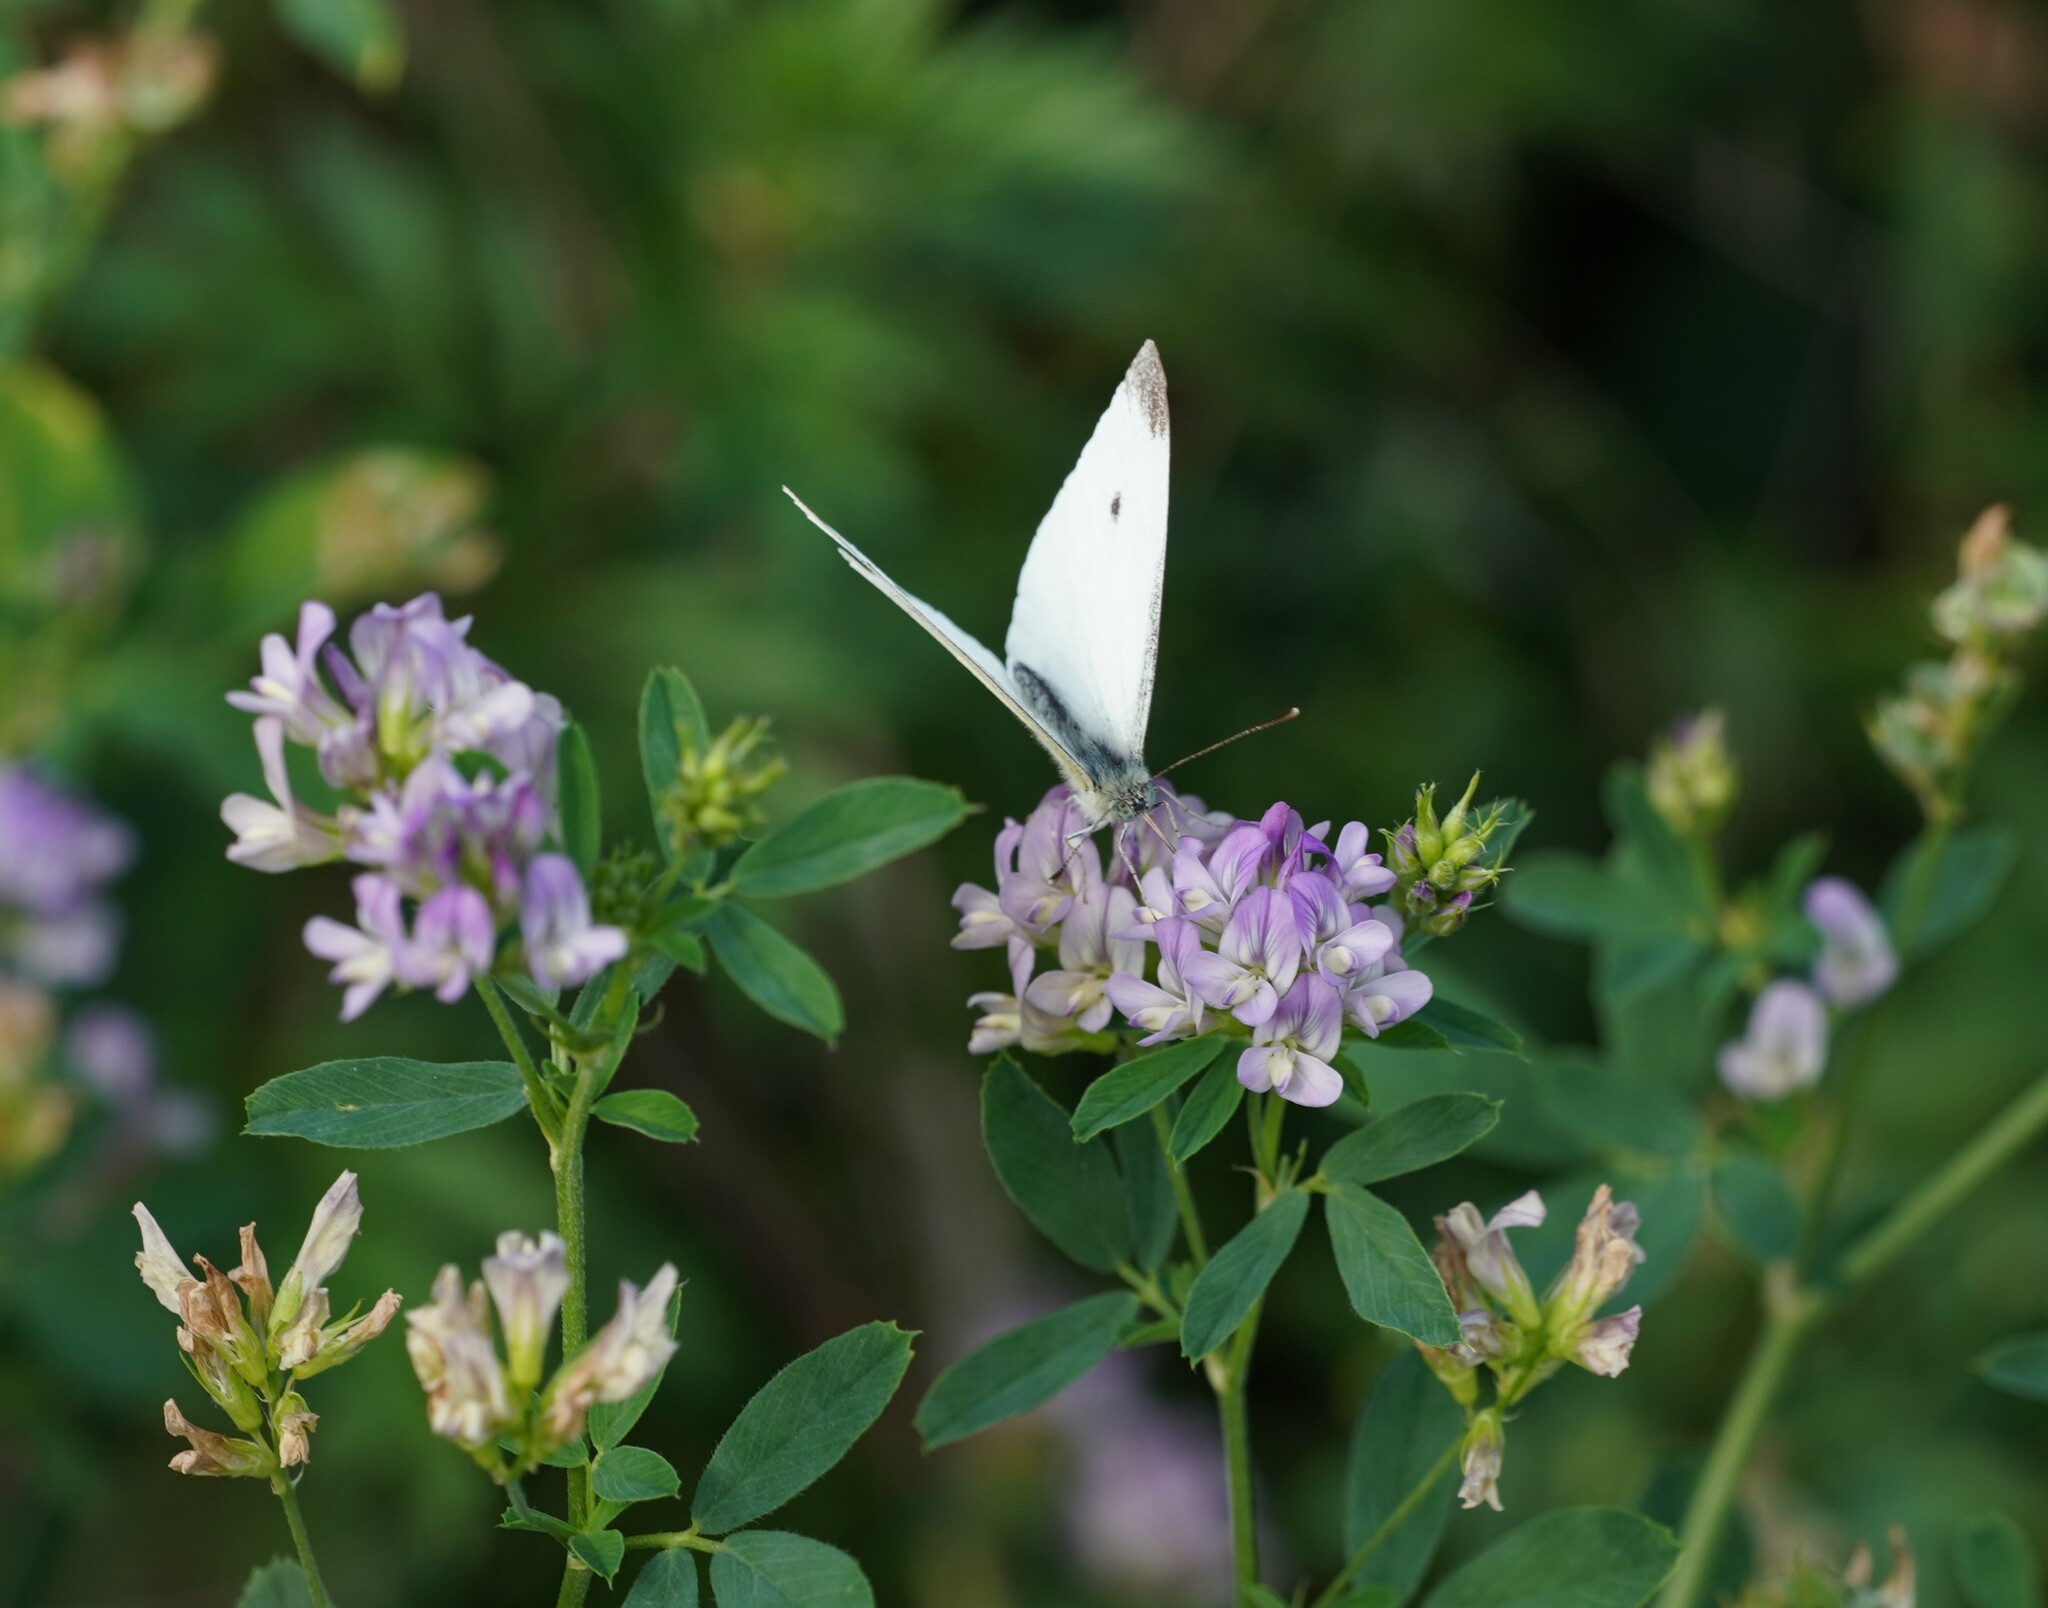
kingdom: Animalia
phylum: Arthropoda
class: Insecta
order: Lepidoptera
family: Pieridae
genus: Pieris
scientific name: Pieris rapae
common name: Small white
